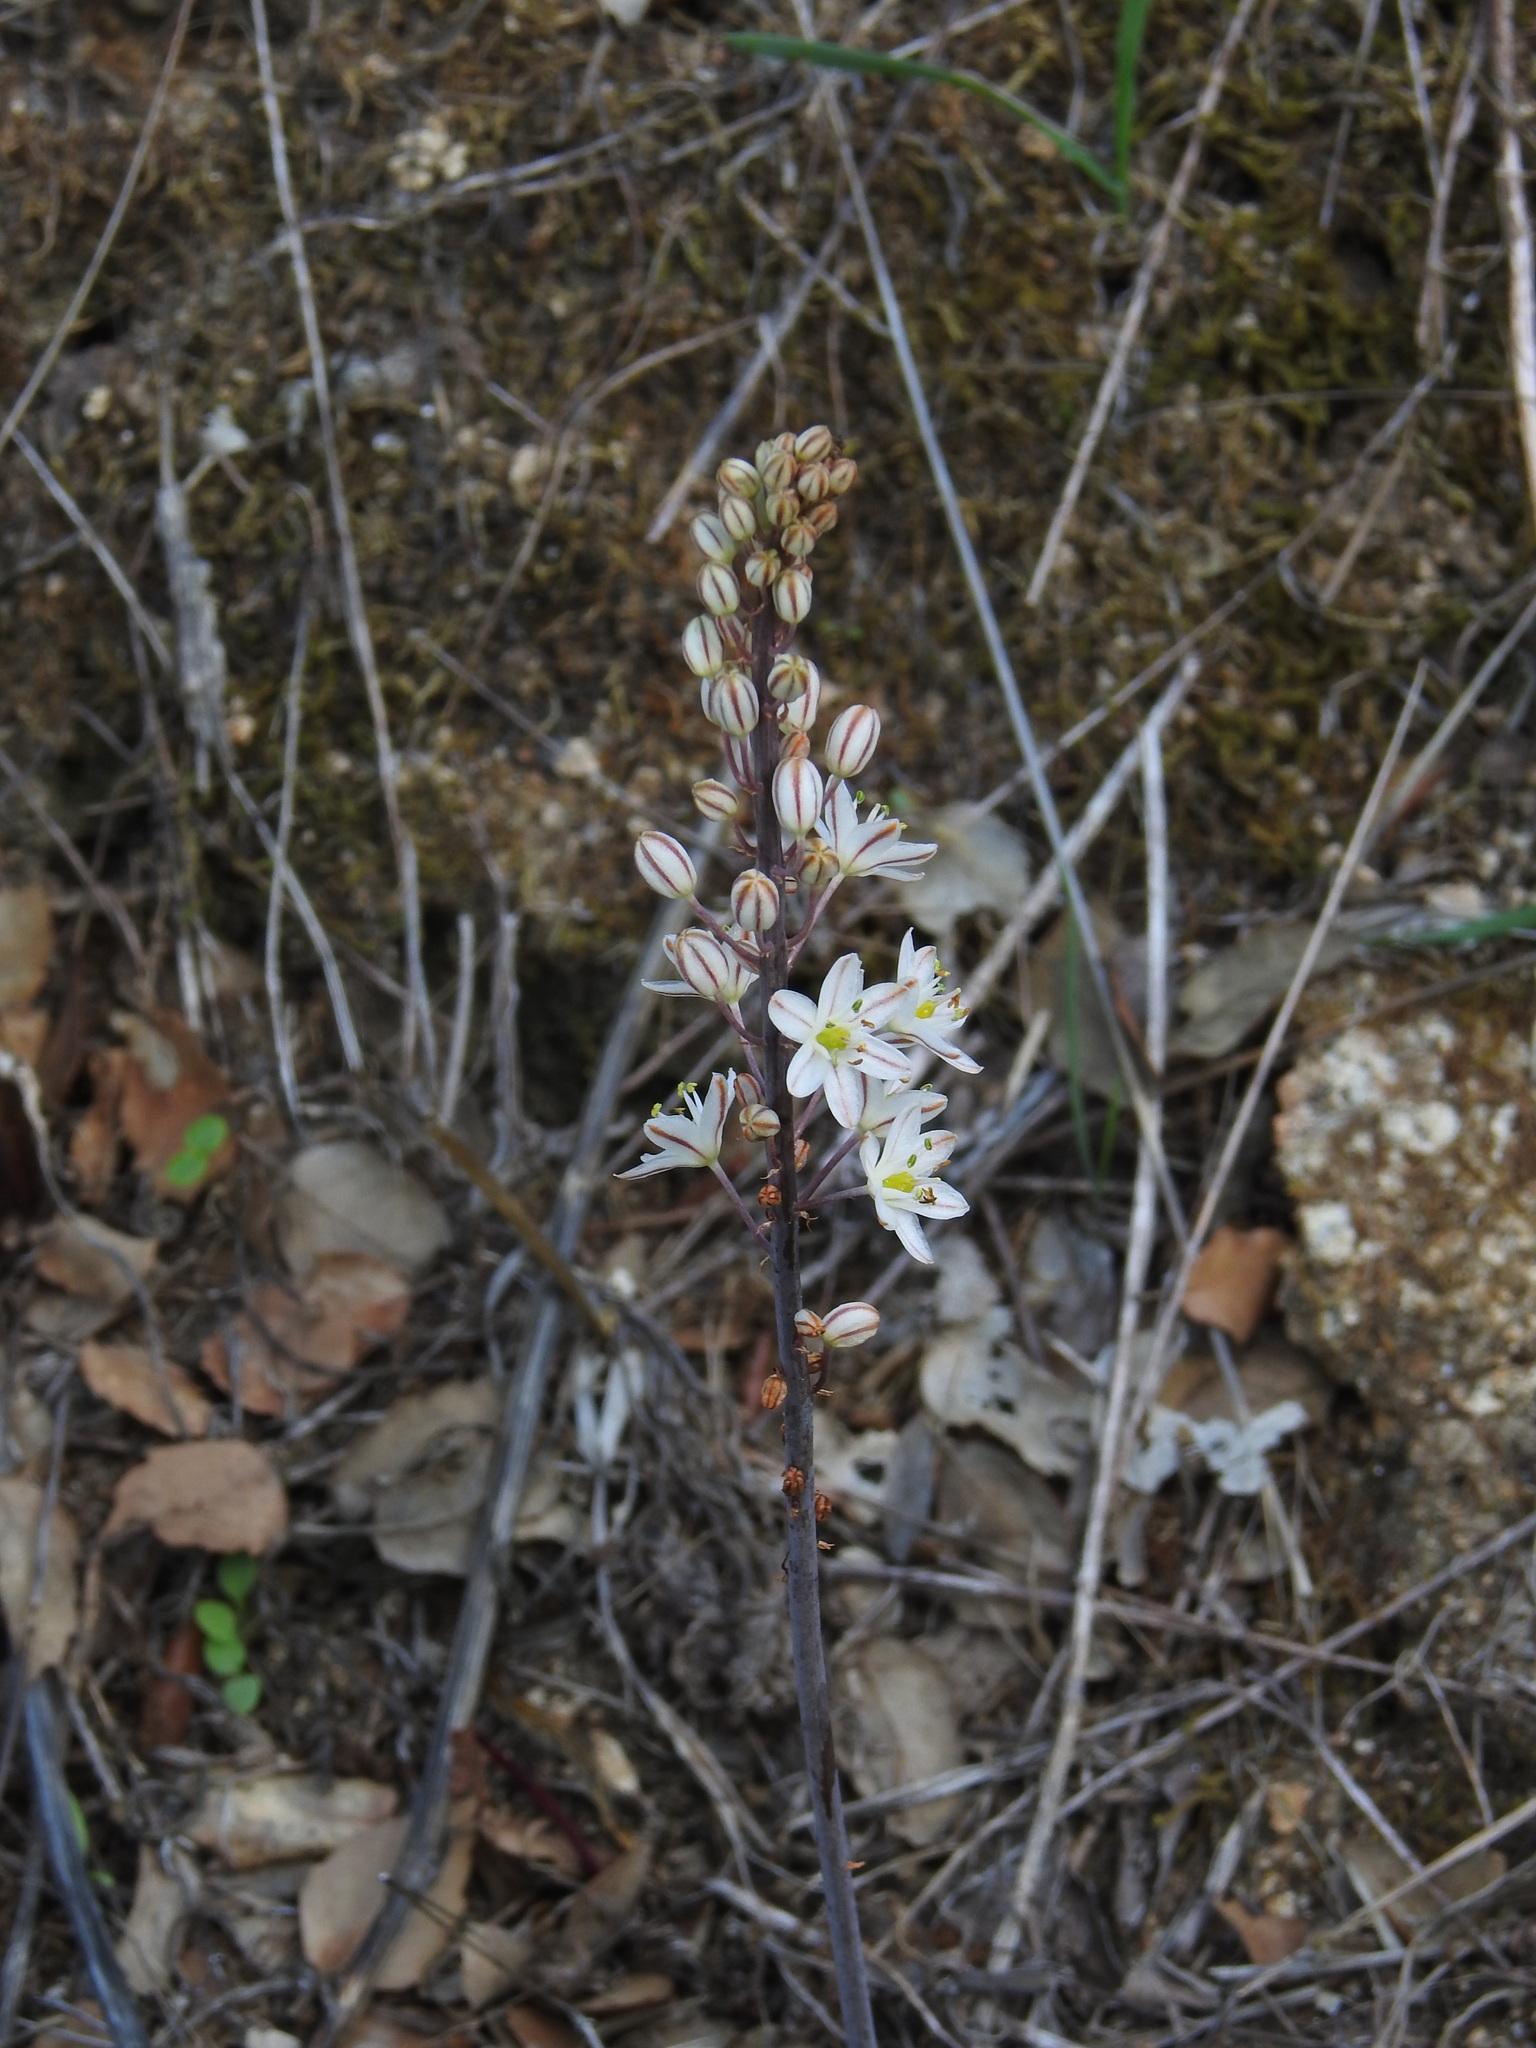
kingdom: Plantae
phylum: Tracheophyta
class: Liliopsida
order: Asparagales
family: Asparagaceae
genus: Drimia
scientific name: Drimia maritima
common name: Maritime squill
